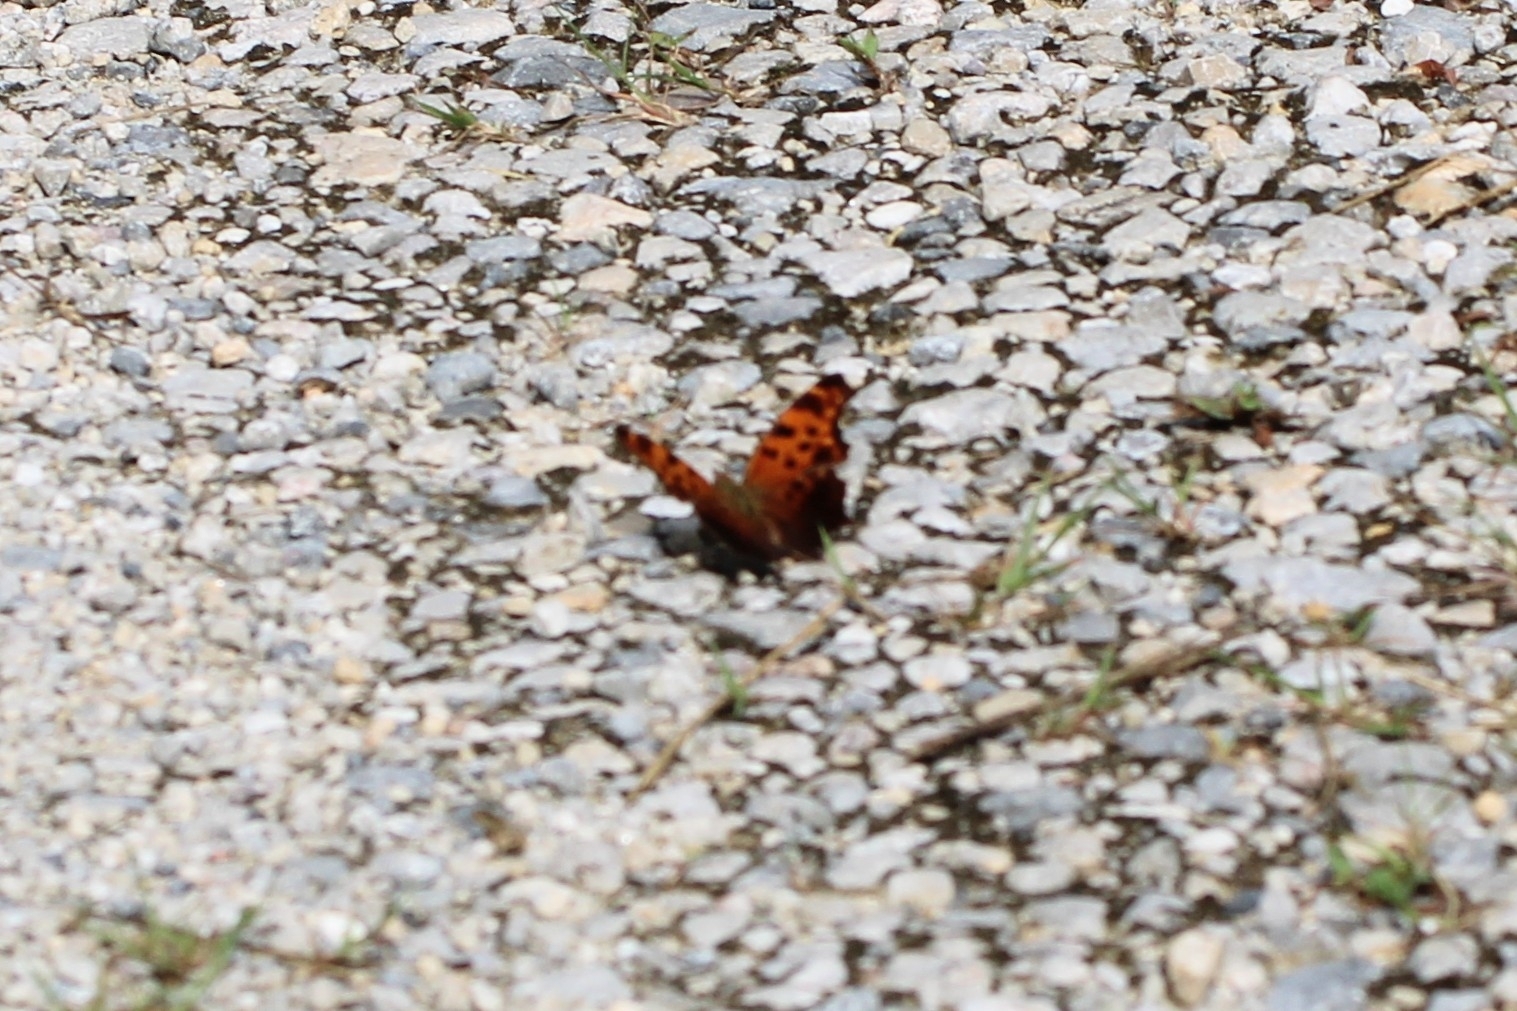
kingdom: Animalia
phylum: Arthropoda
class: Insecta
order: Lepidoptera
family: Nymphalidae
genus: Polygonia
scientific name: Polygonia comma
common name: Eastern comma
